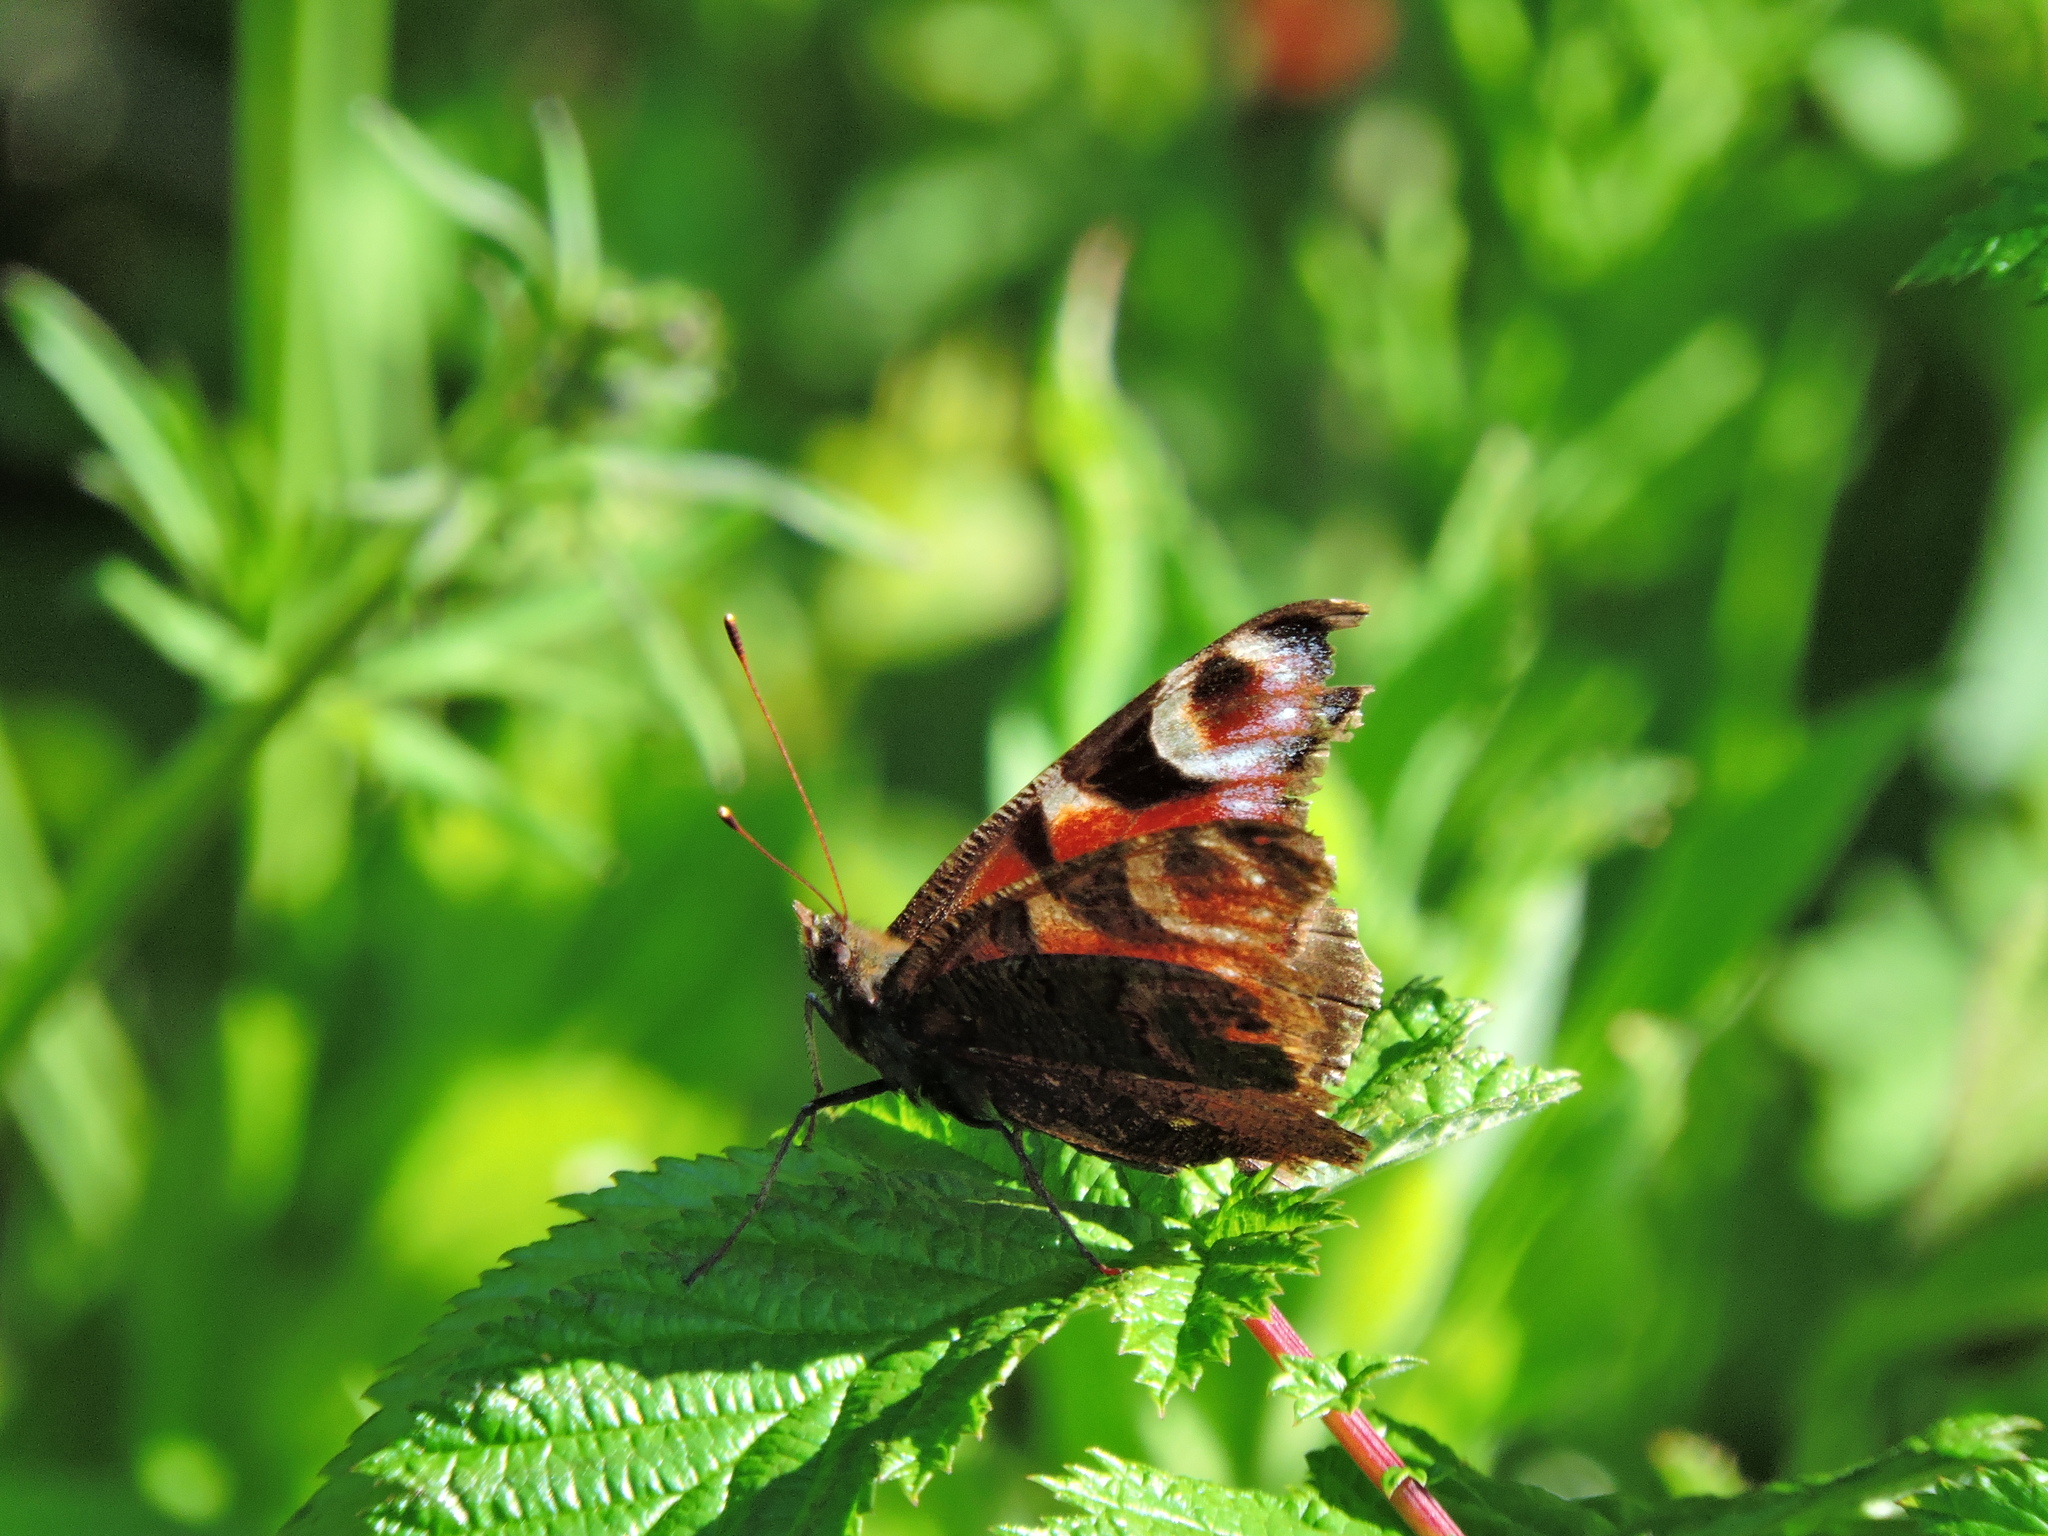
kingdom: Animalia
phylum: Arthropoda
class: Insecta
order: Lepidoptera
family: Nymphalidae
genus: Aglais
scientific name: Aglais io
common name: Peacock
